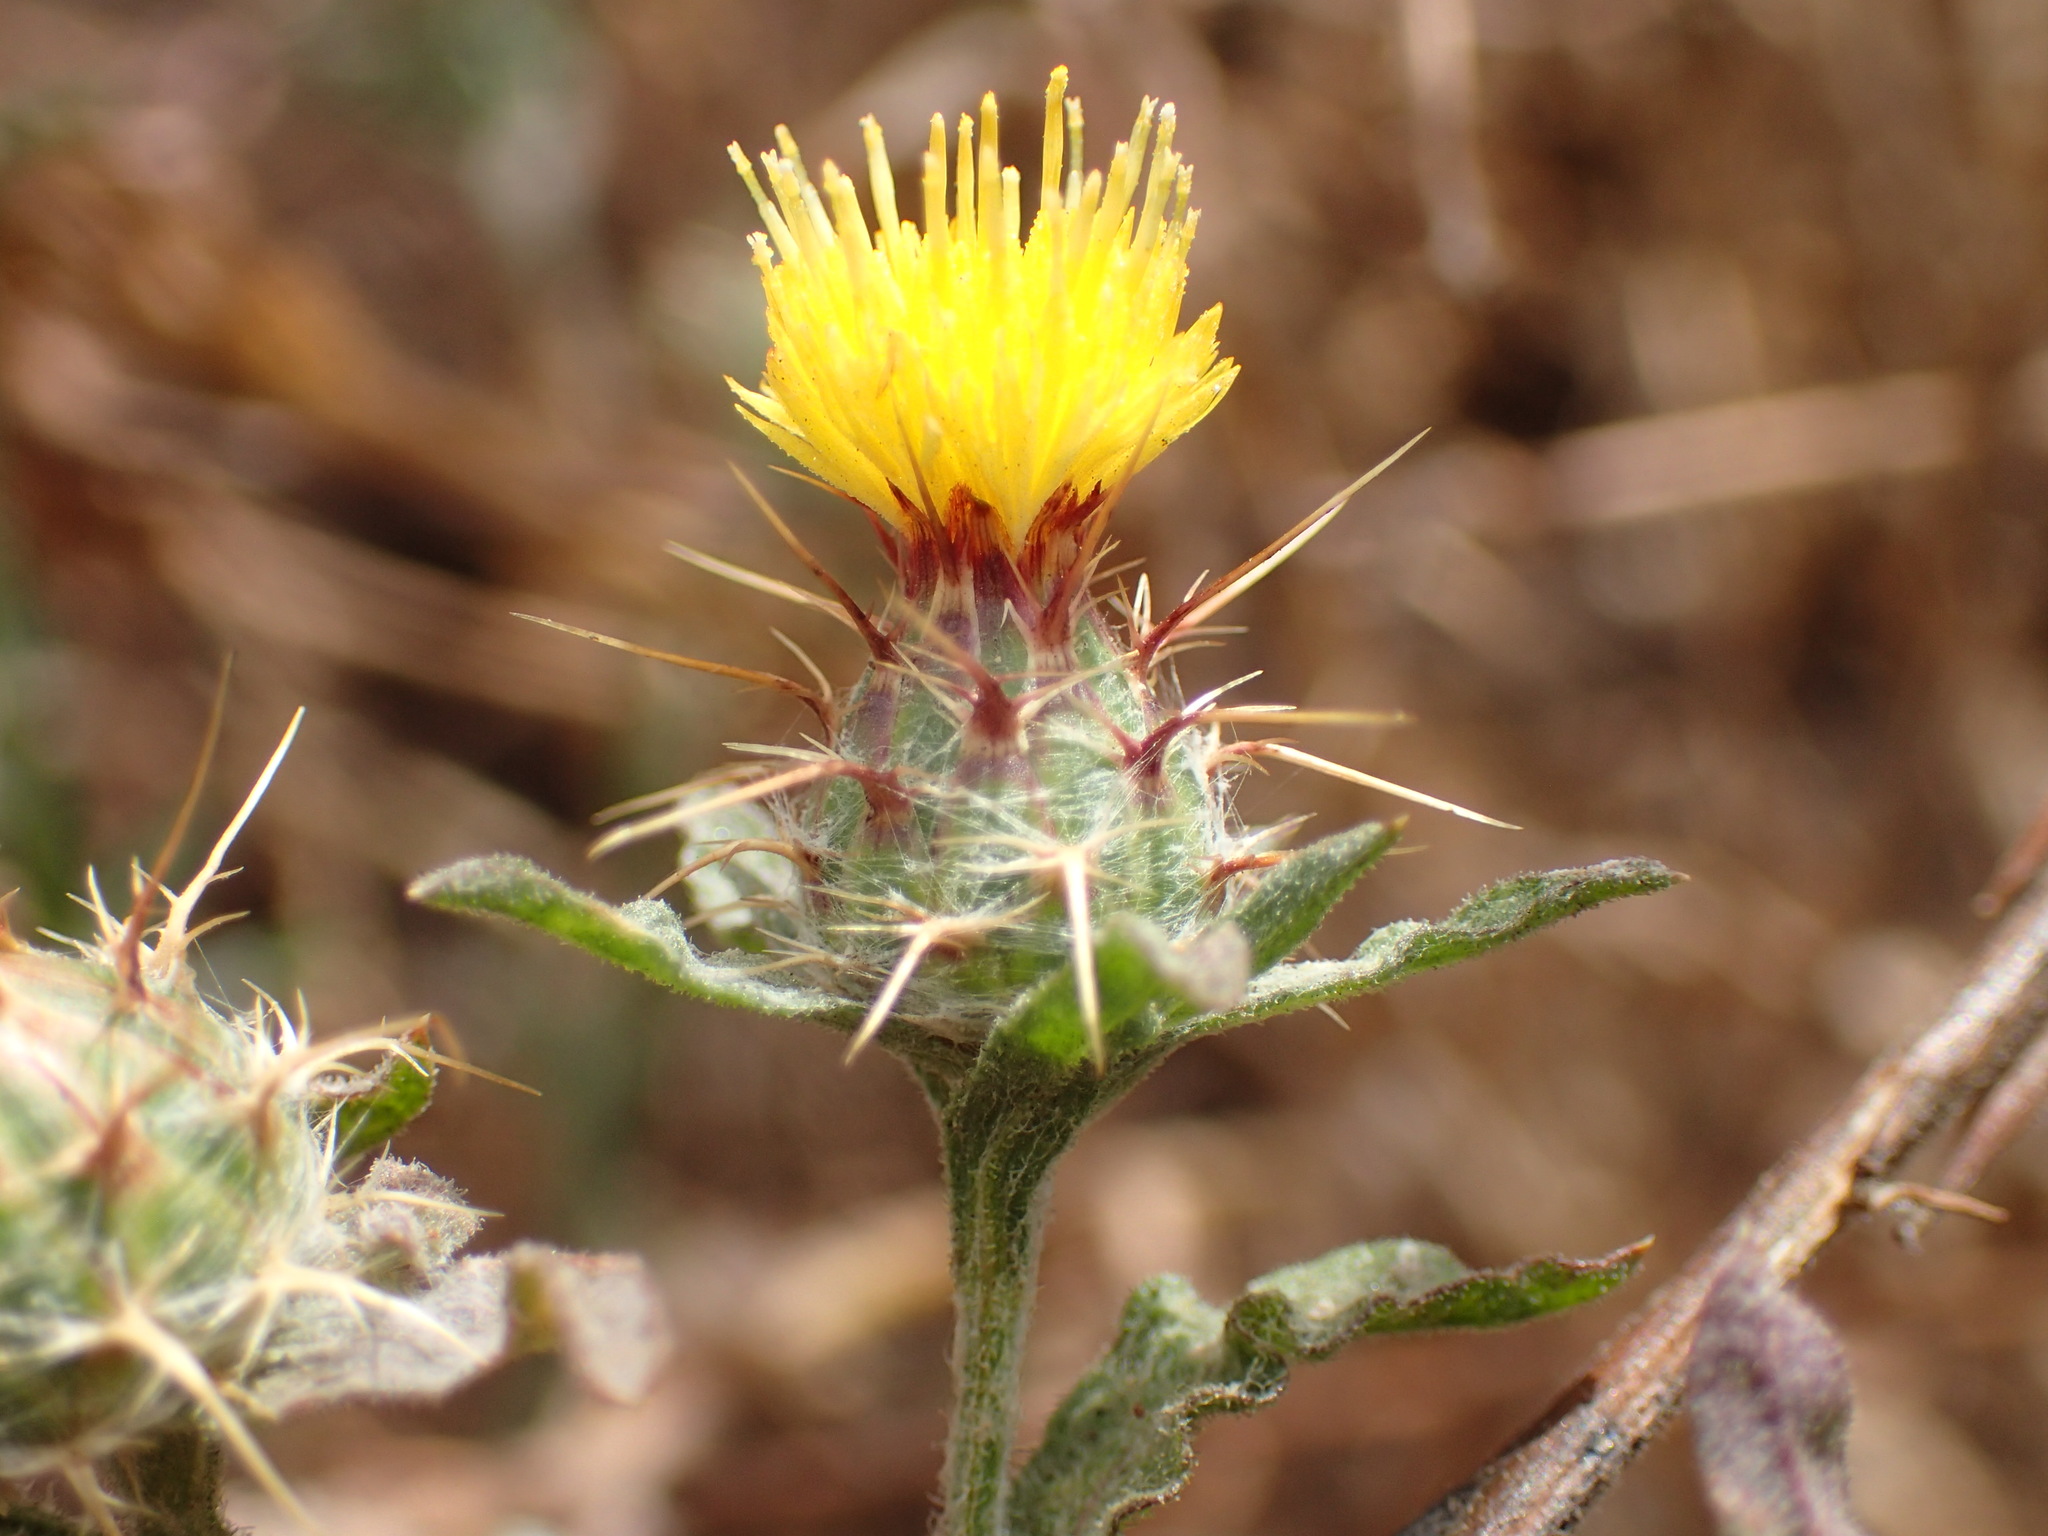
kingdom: Plantae
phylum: Tracheophyta
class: Magnoliopsida
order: Asterales
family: Asteraceae
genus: Centaurea
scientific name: Centaurea melitensis
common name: Maltese star-thistle
